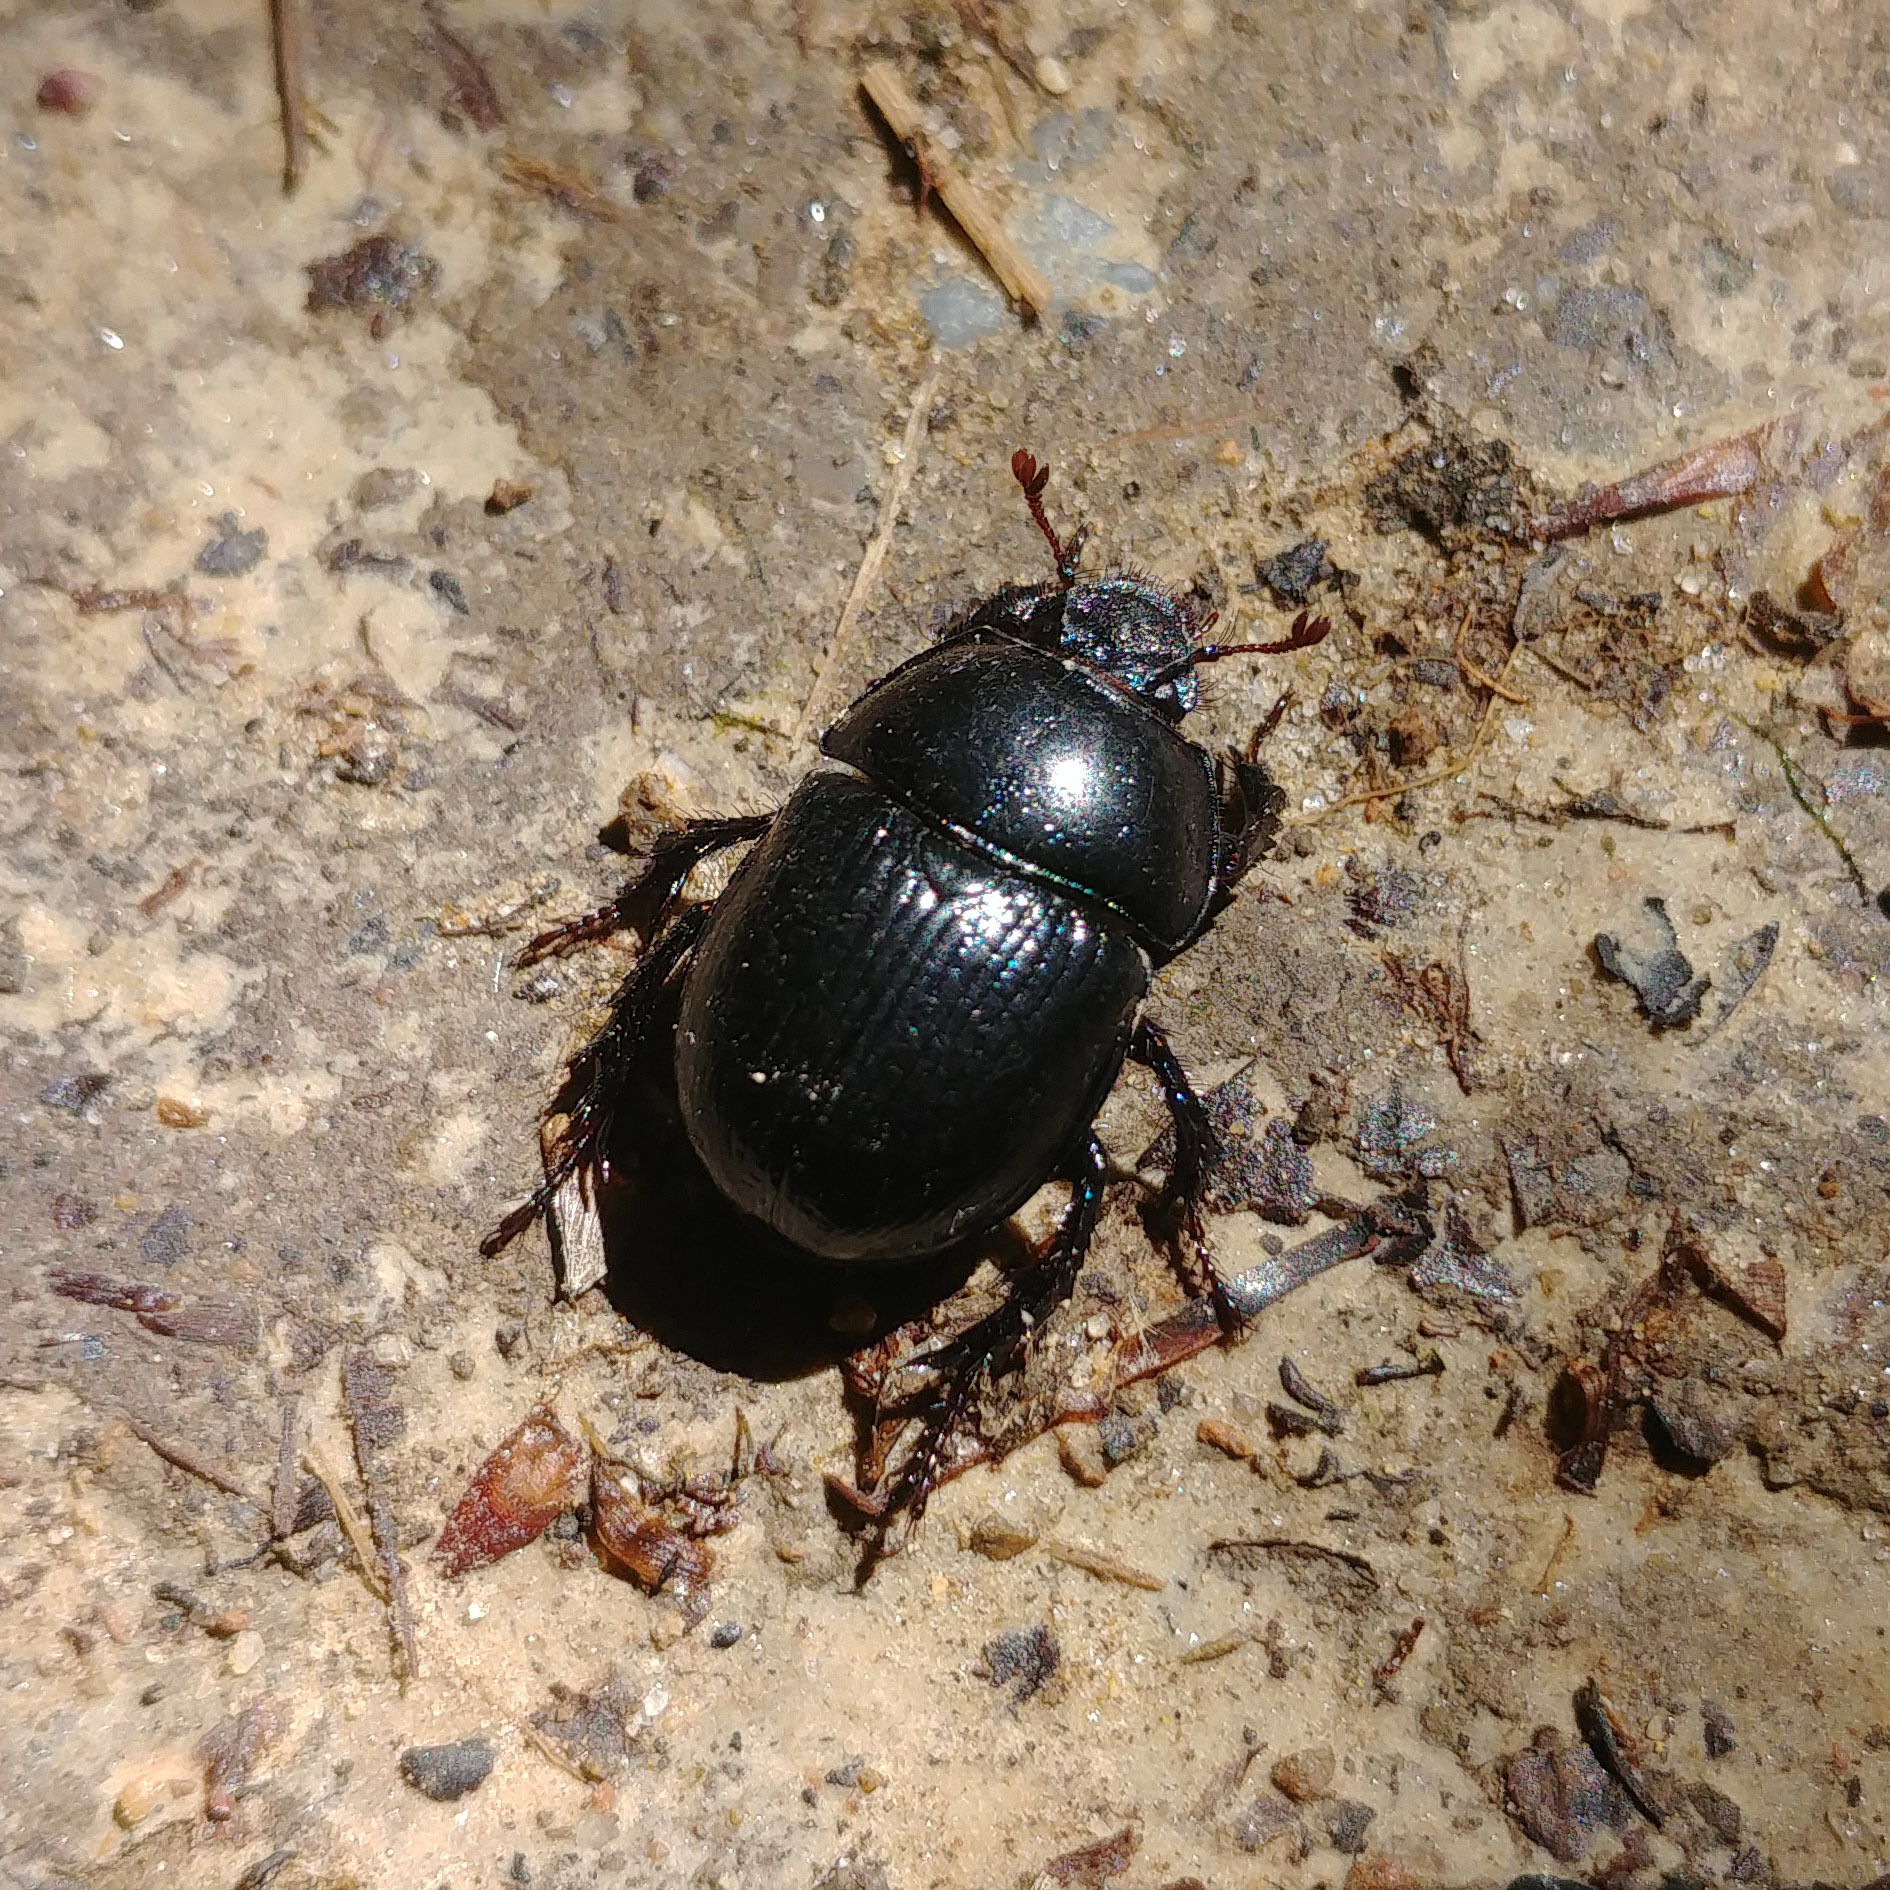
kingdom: Animalia
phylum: Arthropoda
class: Insecta
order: Coleoptera
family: Geotrupidae
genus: Anoplotrupes
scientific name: Anoplotrupes stercorosus
